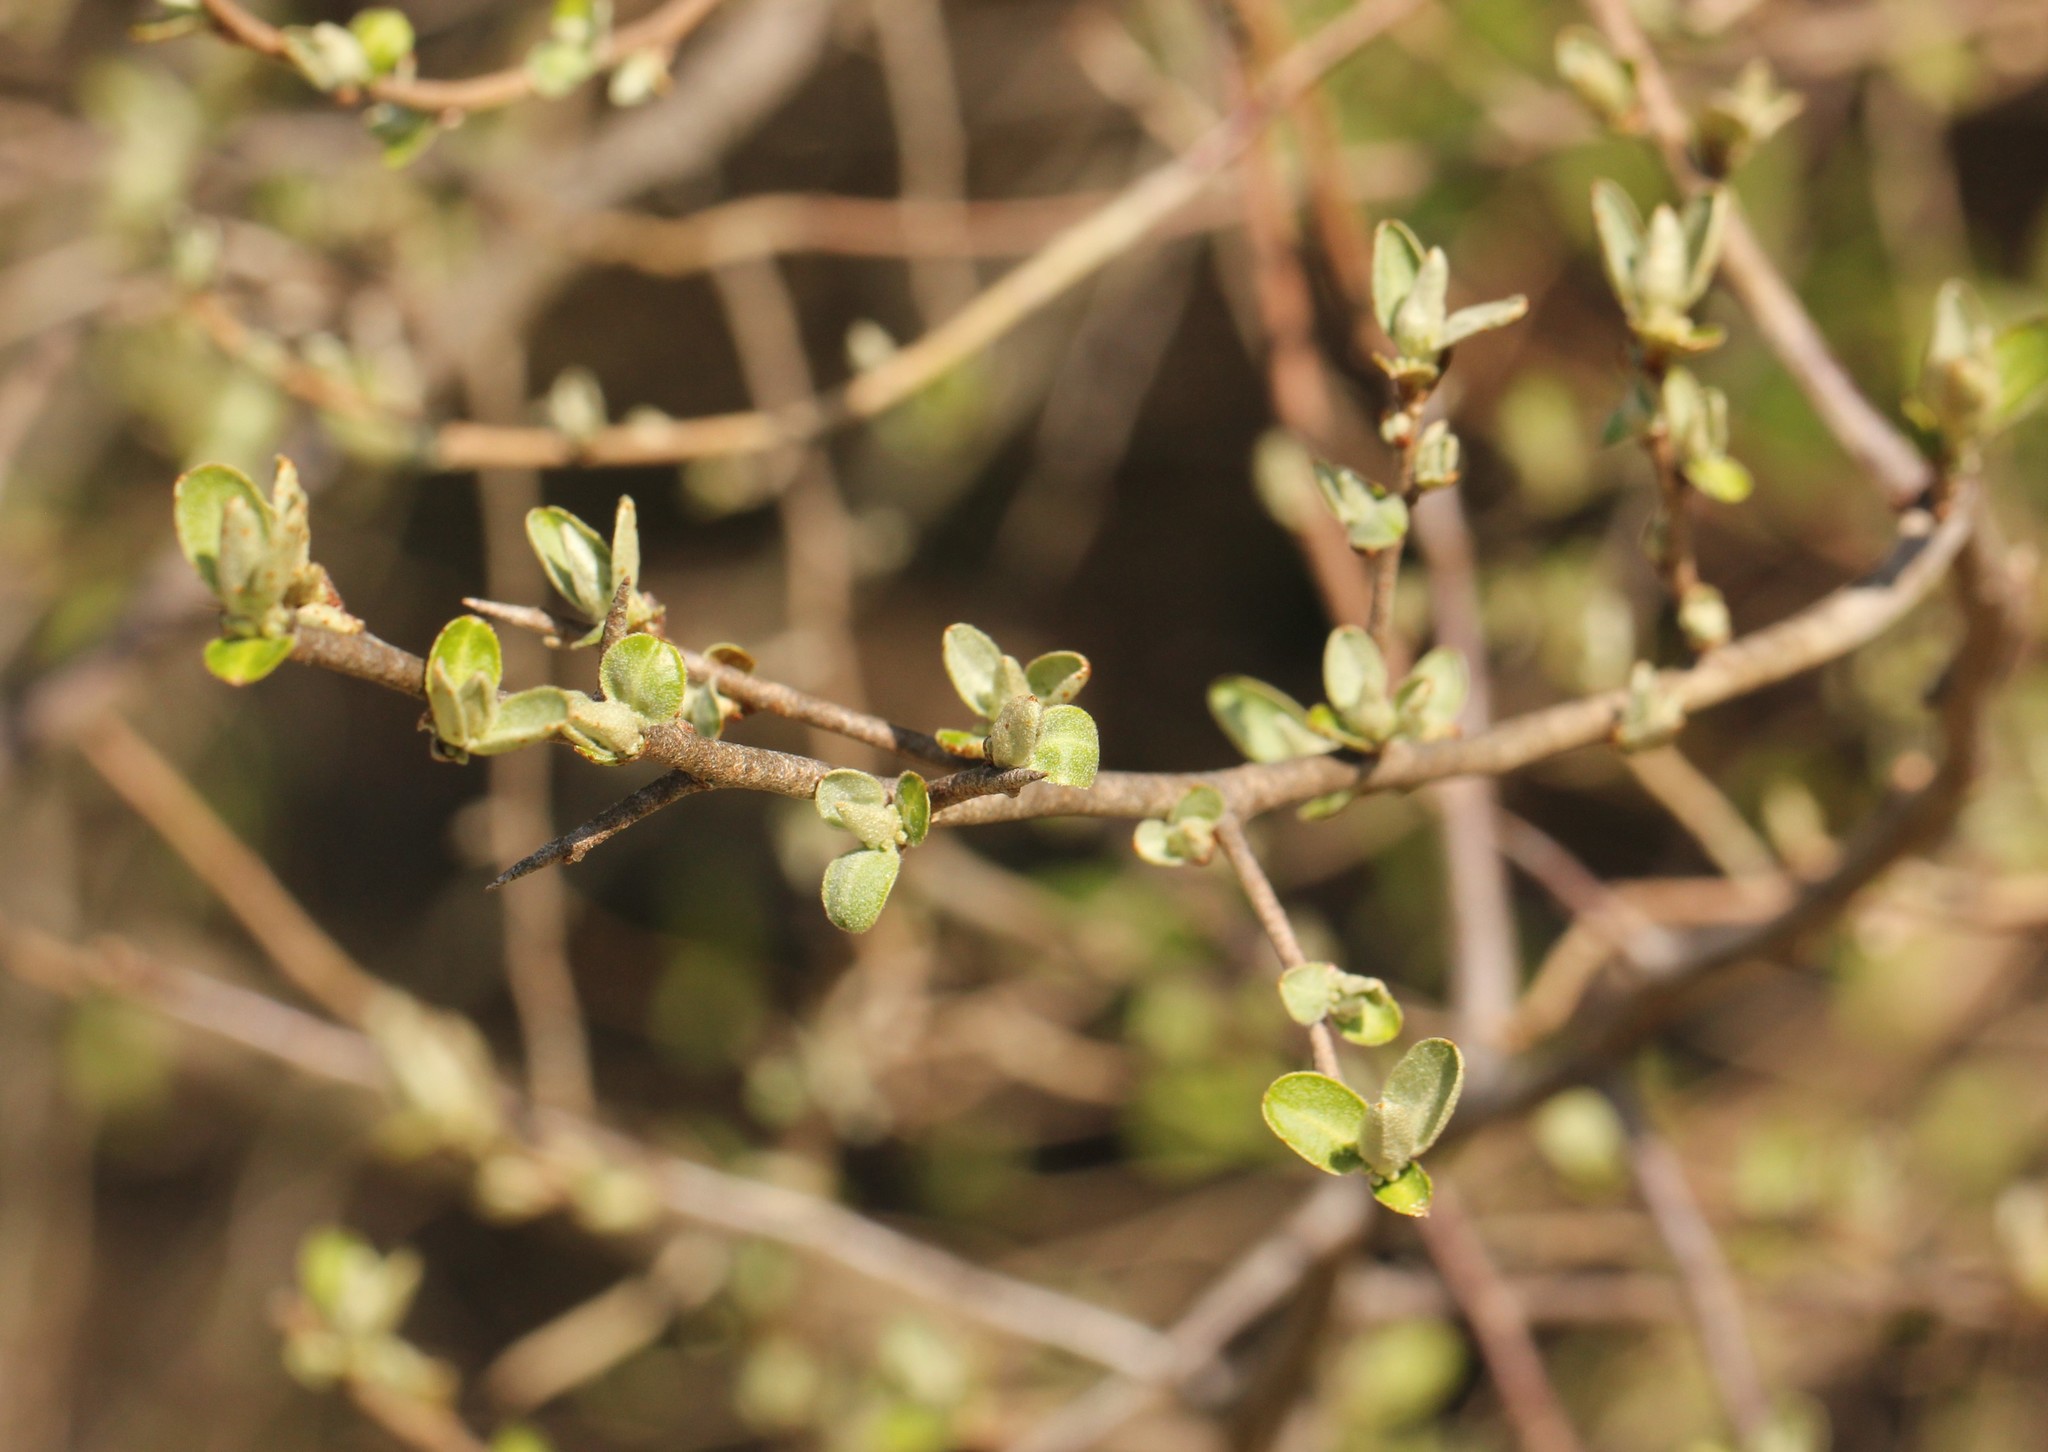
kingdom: Plantae
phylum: Tracheophyta
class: Magnoliopsida
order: Rosales
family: Elaeagnaceae
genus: Elaeagnus
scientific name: Elaeagnus umbellata
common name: Autumn olive
